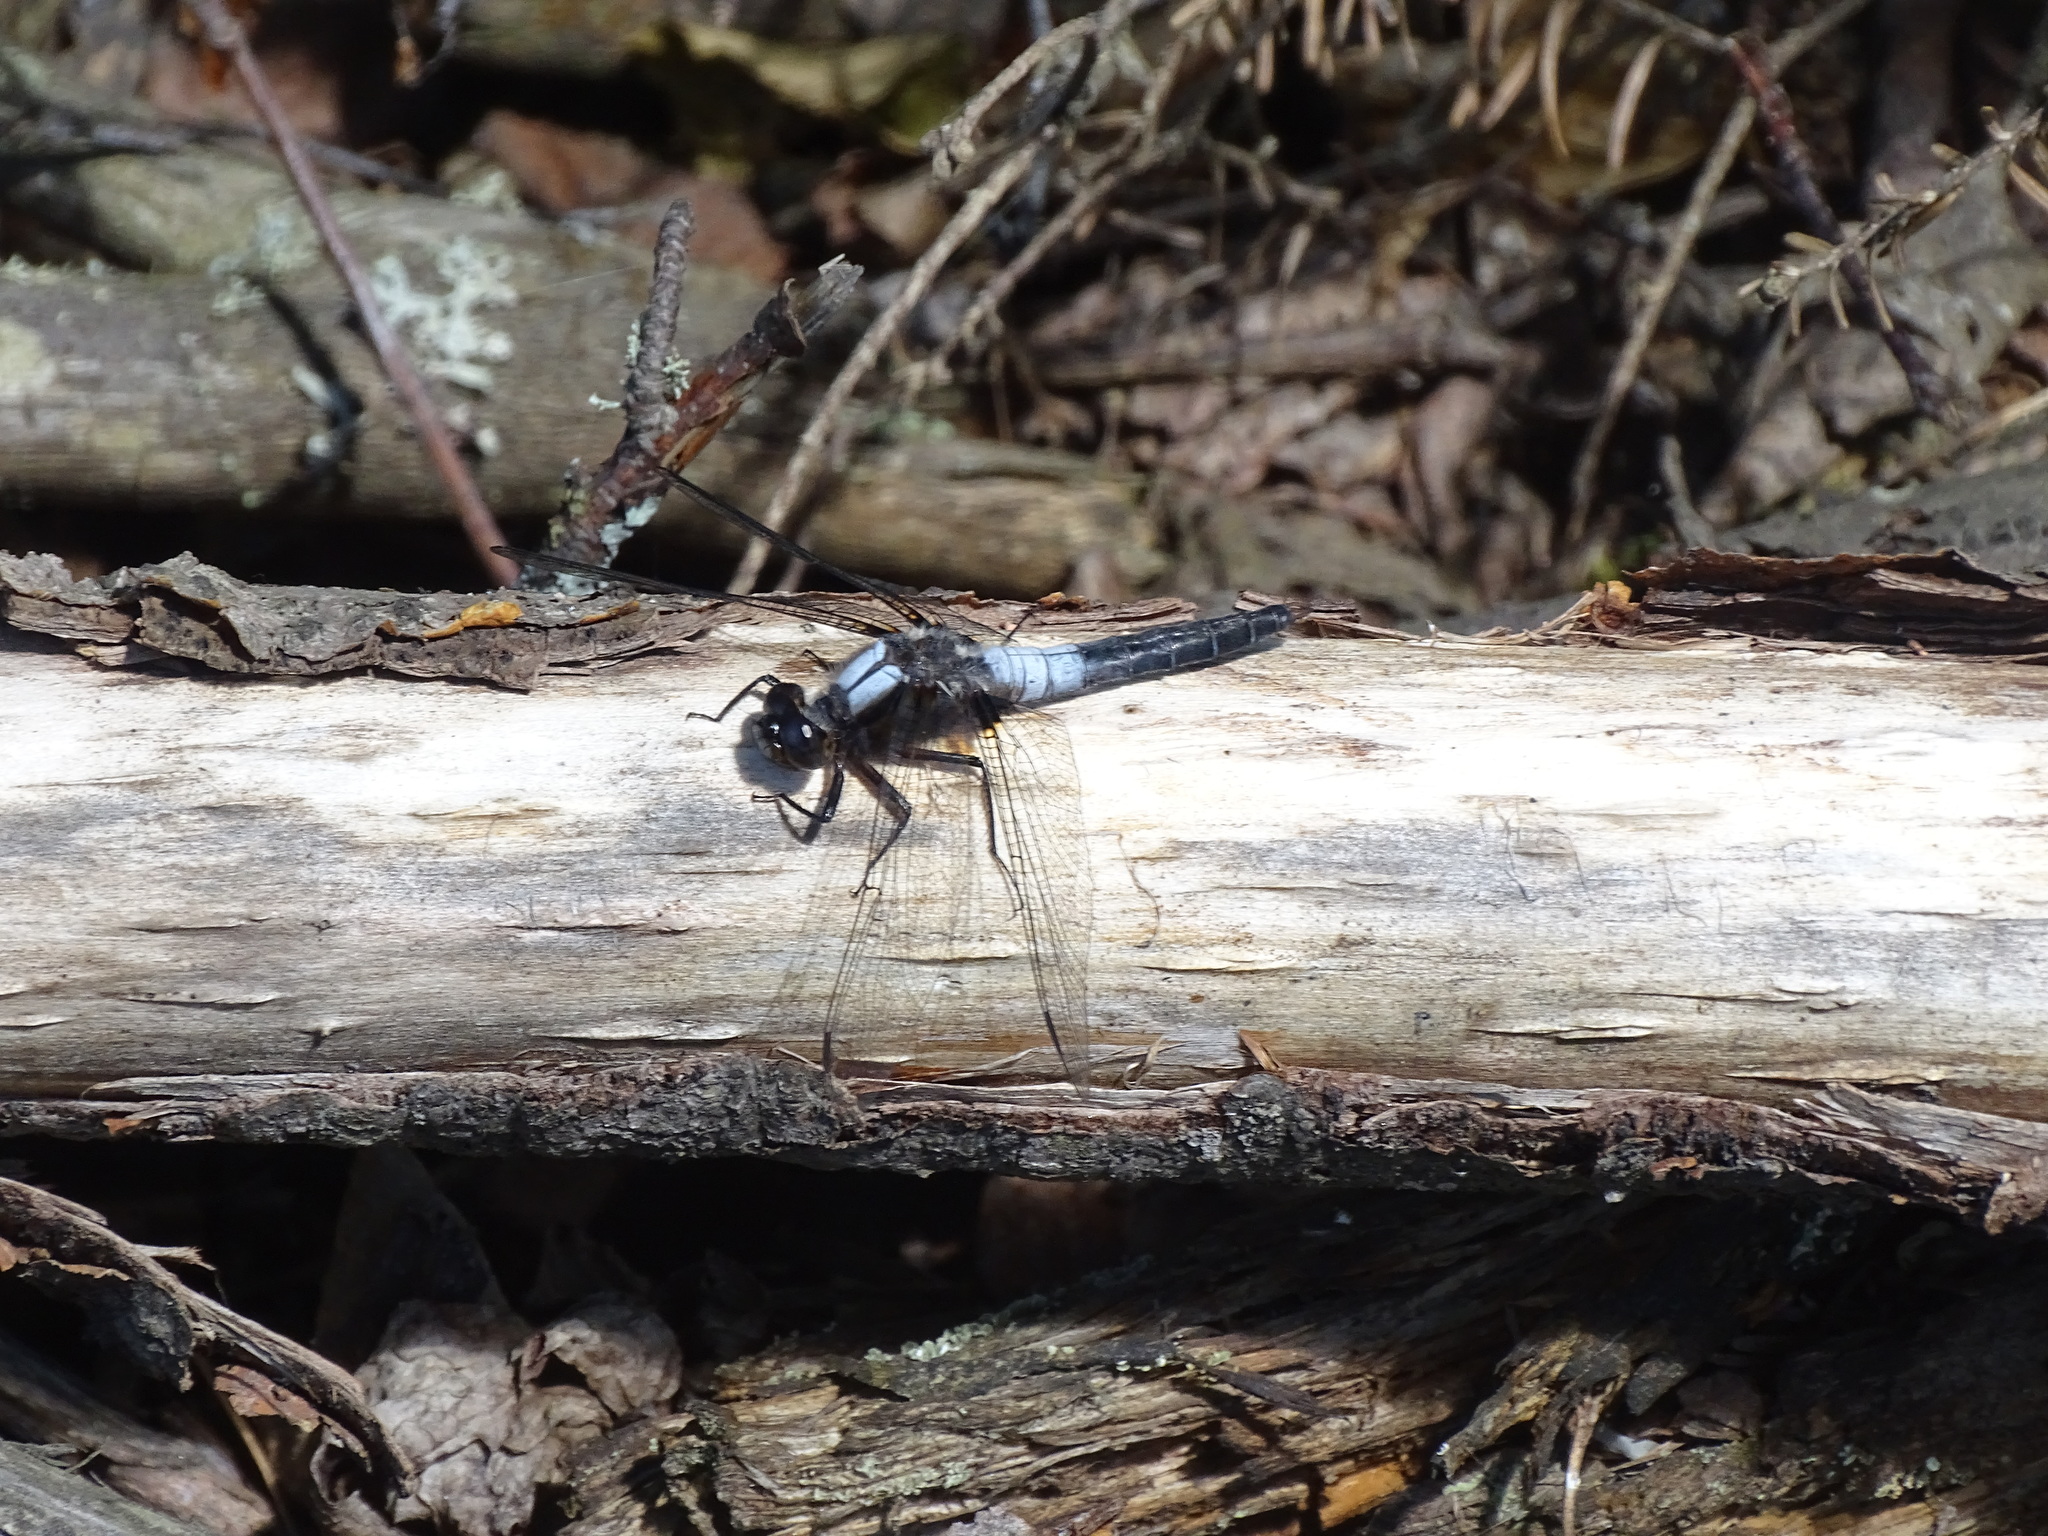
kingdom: Animalia
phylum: Arthropoda
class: Insecta
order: Odonata
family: Libellulidae
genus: Ladona
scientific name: Ladona julia
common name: Chalk-fronted corporal
